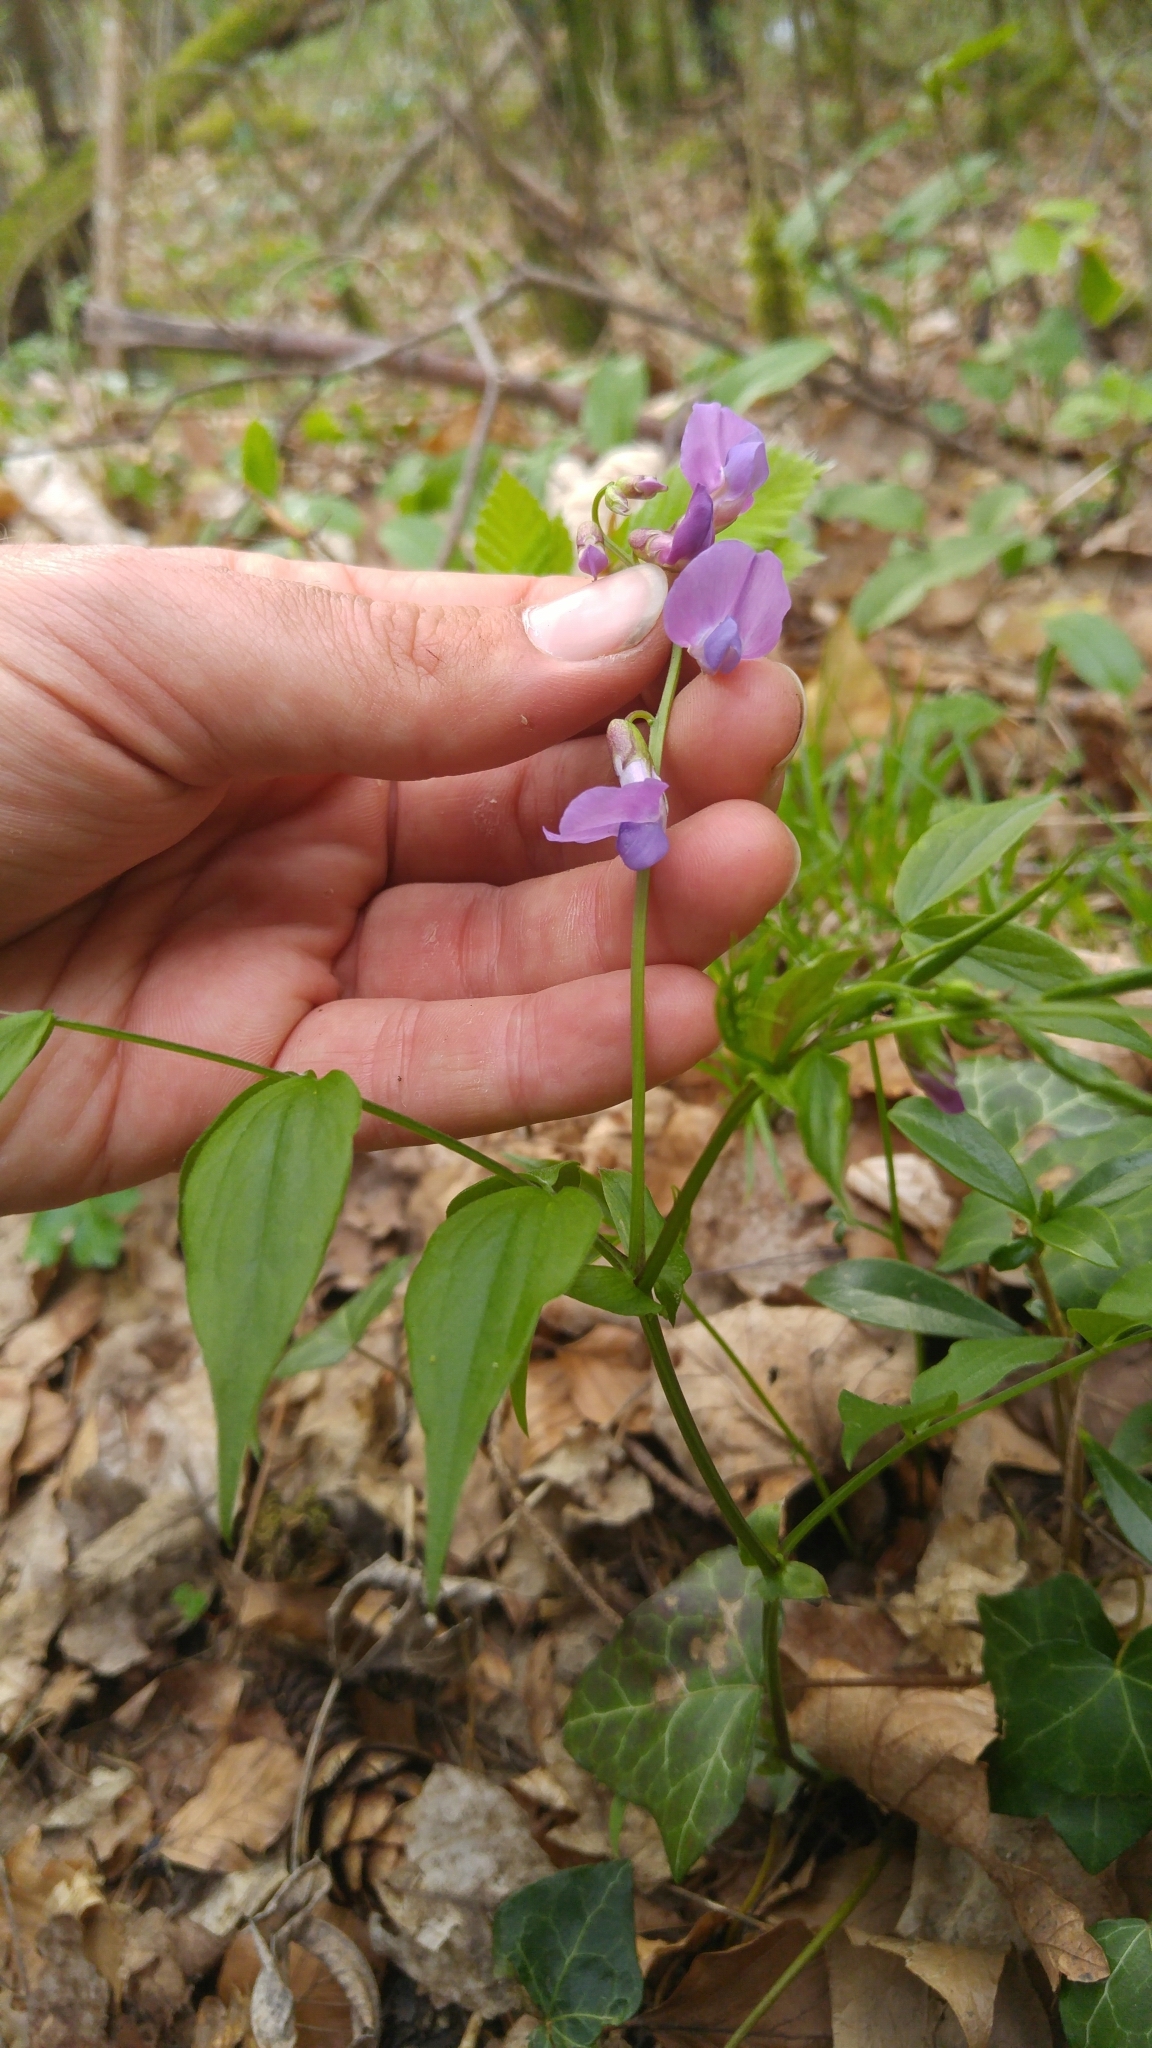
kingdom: Plantae
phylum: Tracheophyta
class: Magnoliopsida
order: Fabales
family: Fabaceae
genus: Lathyrus
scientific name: Lathyrus vernus
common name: Spring pea
